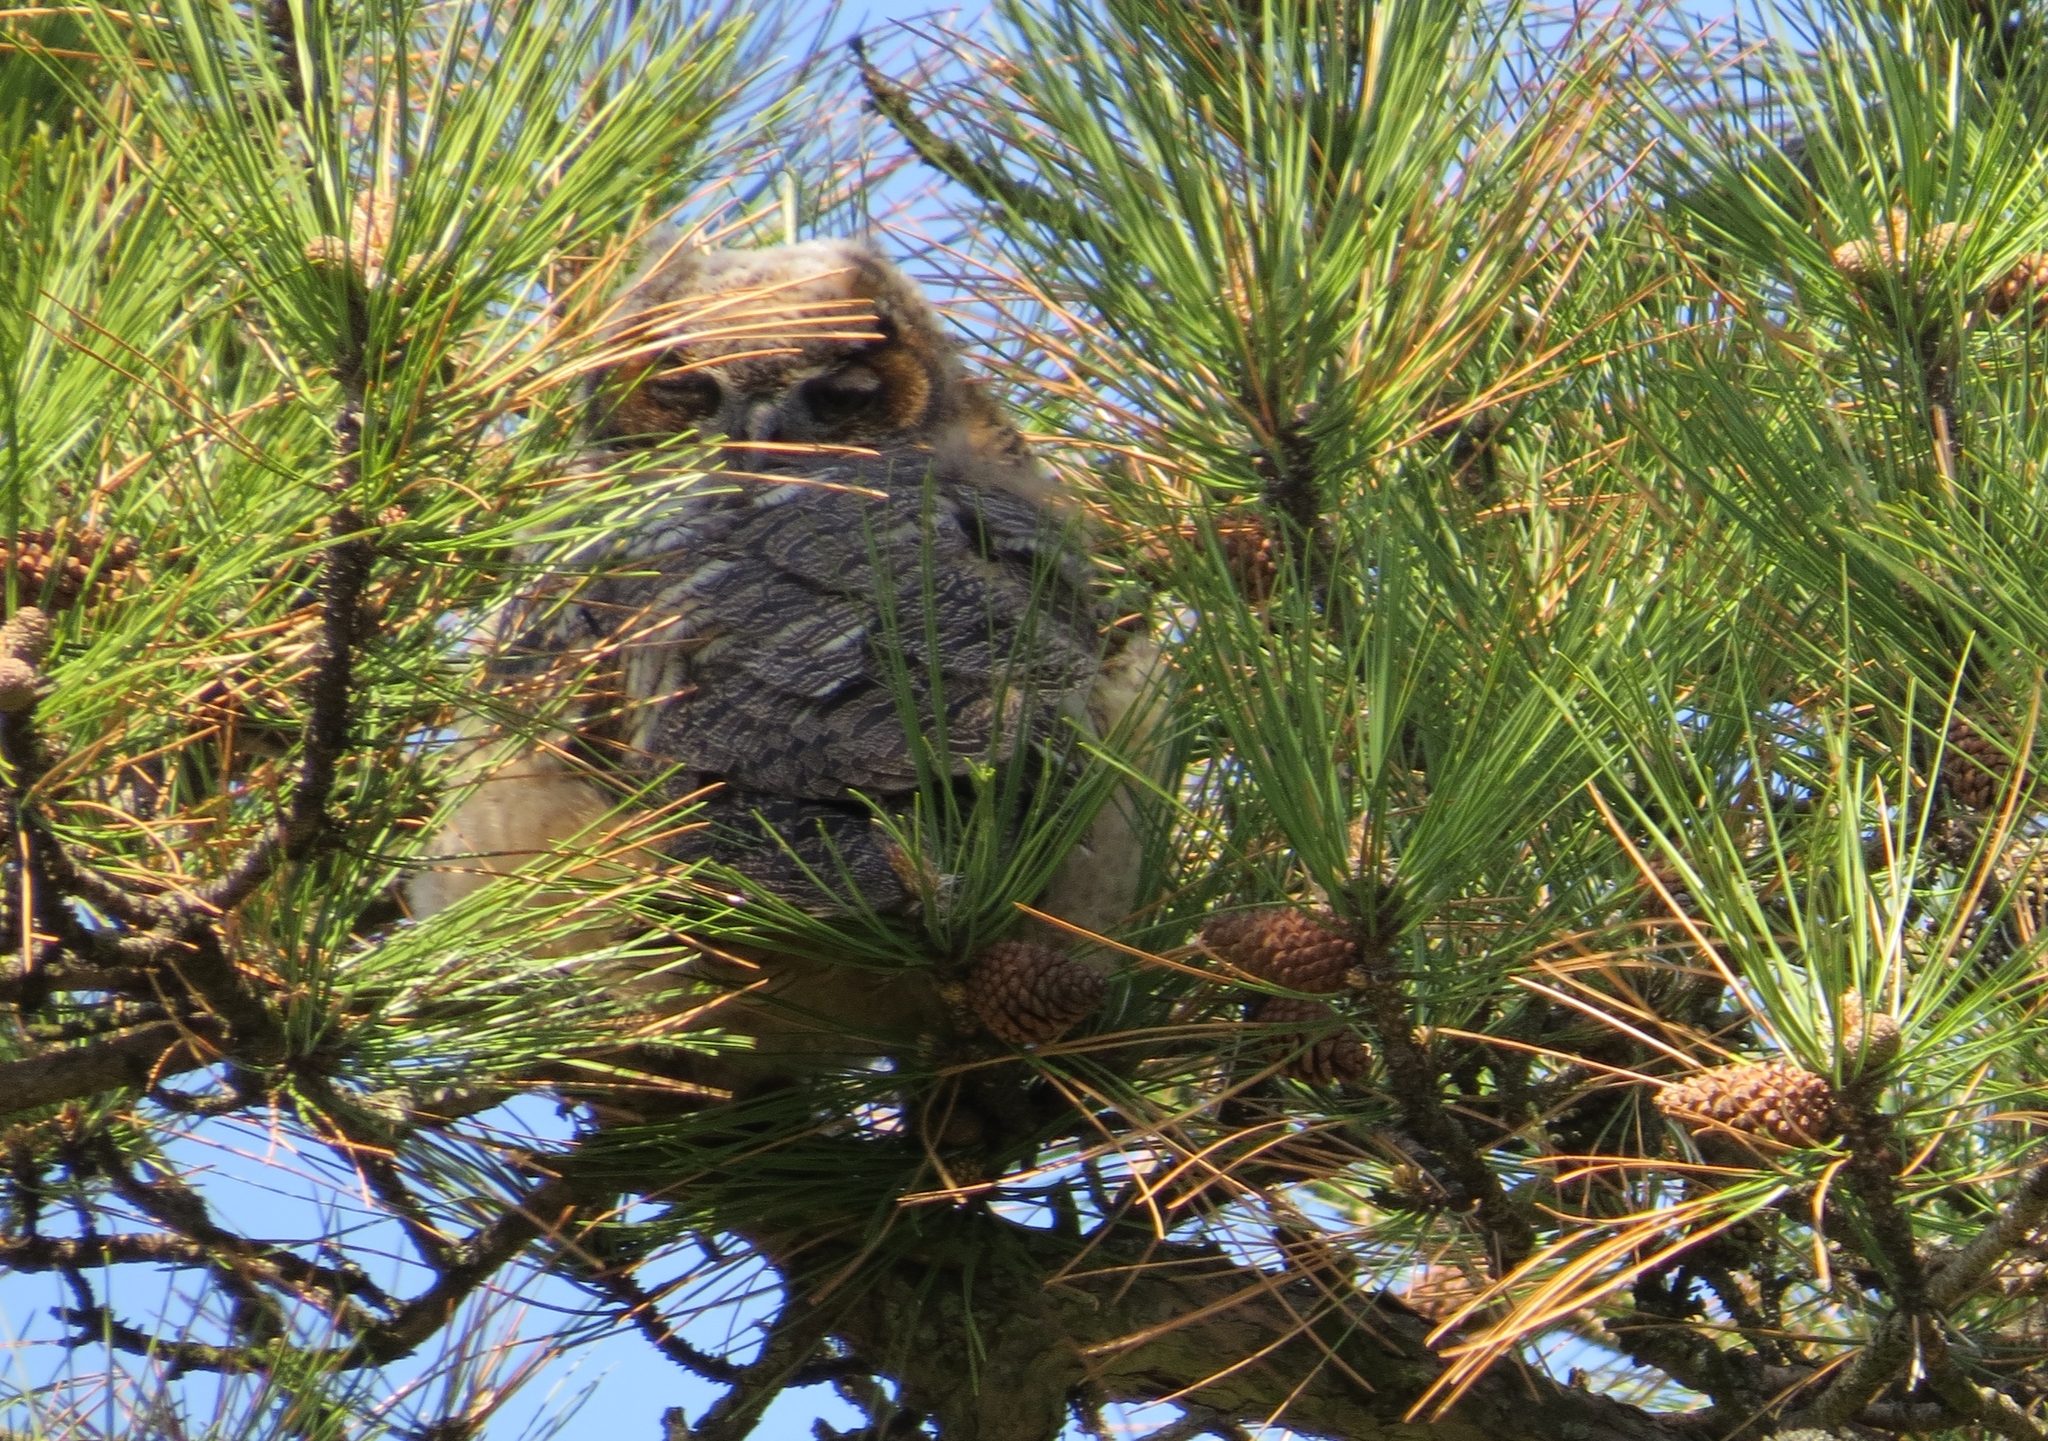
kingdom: Animalia
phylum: Chordata
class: Aves
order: Strigiformes
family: Strigidae
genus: Bubo
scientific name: Bubo virginianus
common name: Great horned owl
